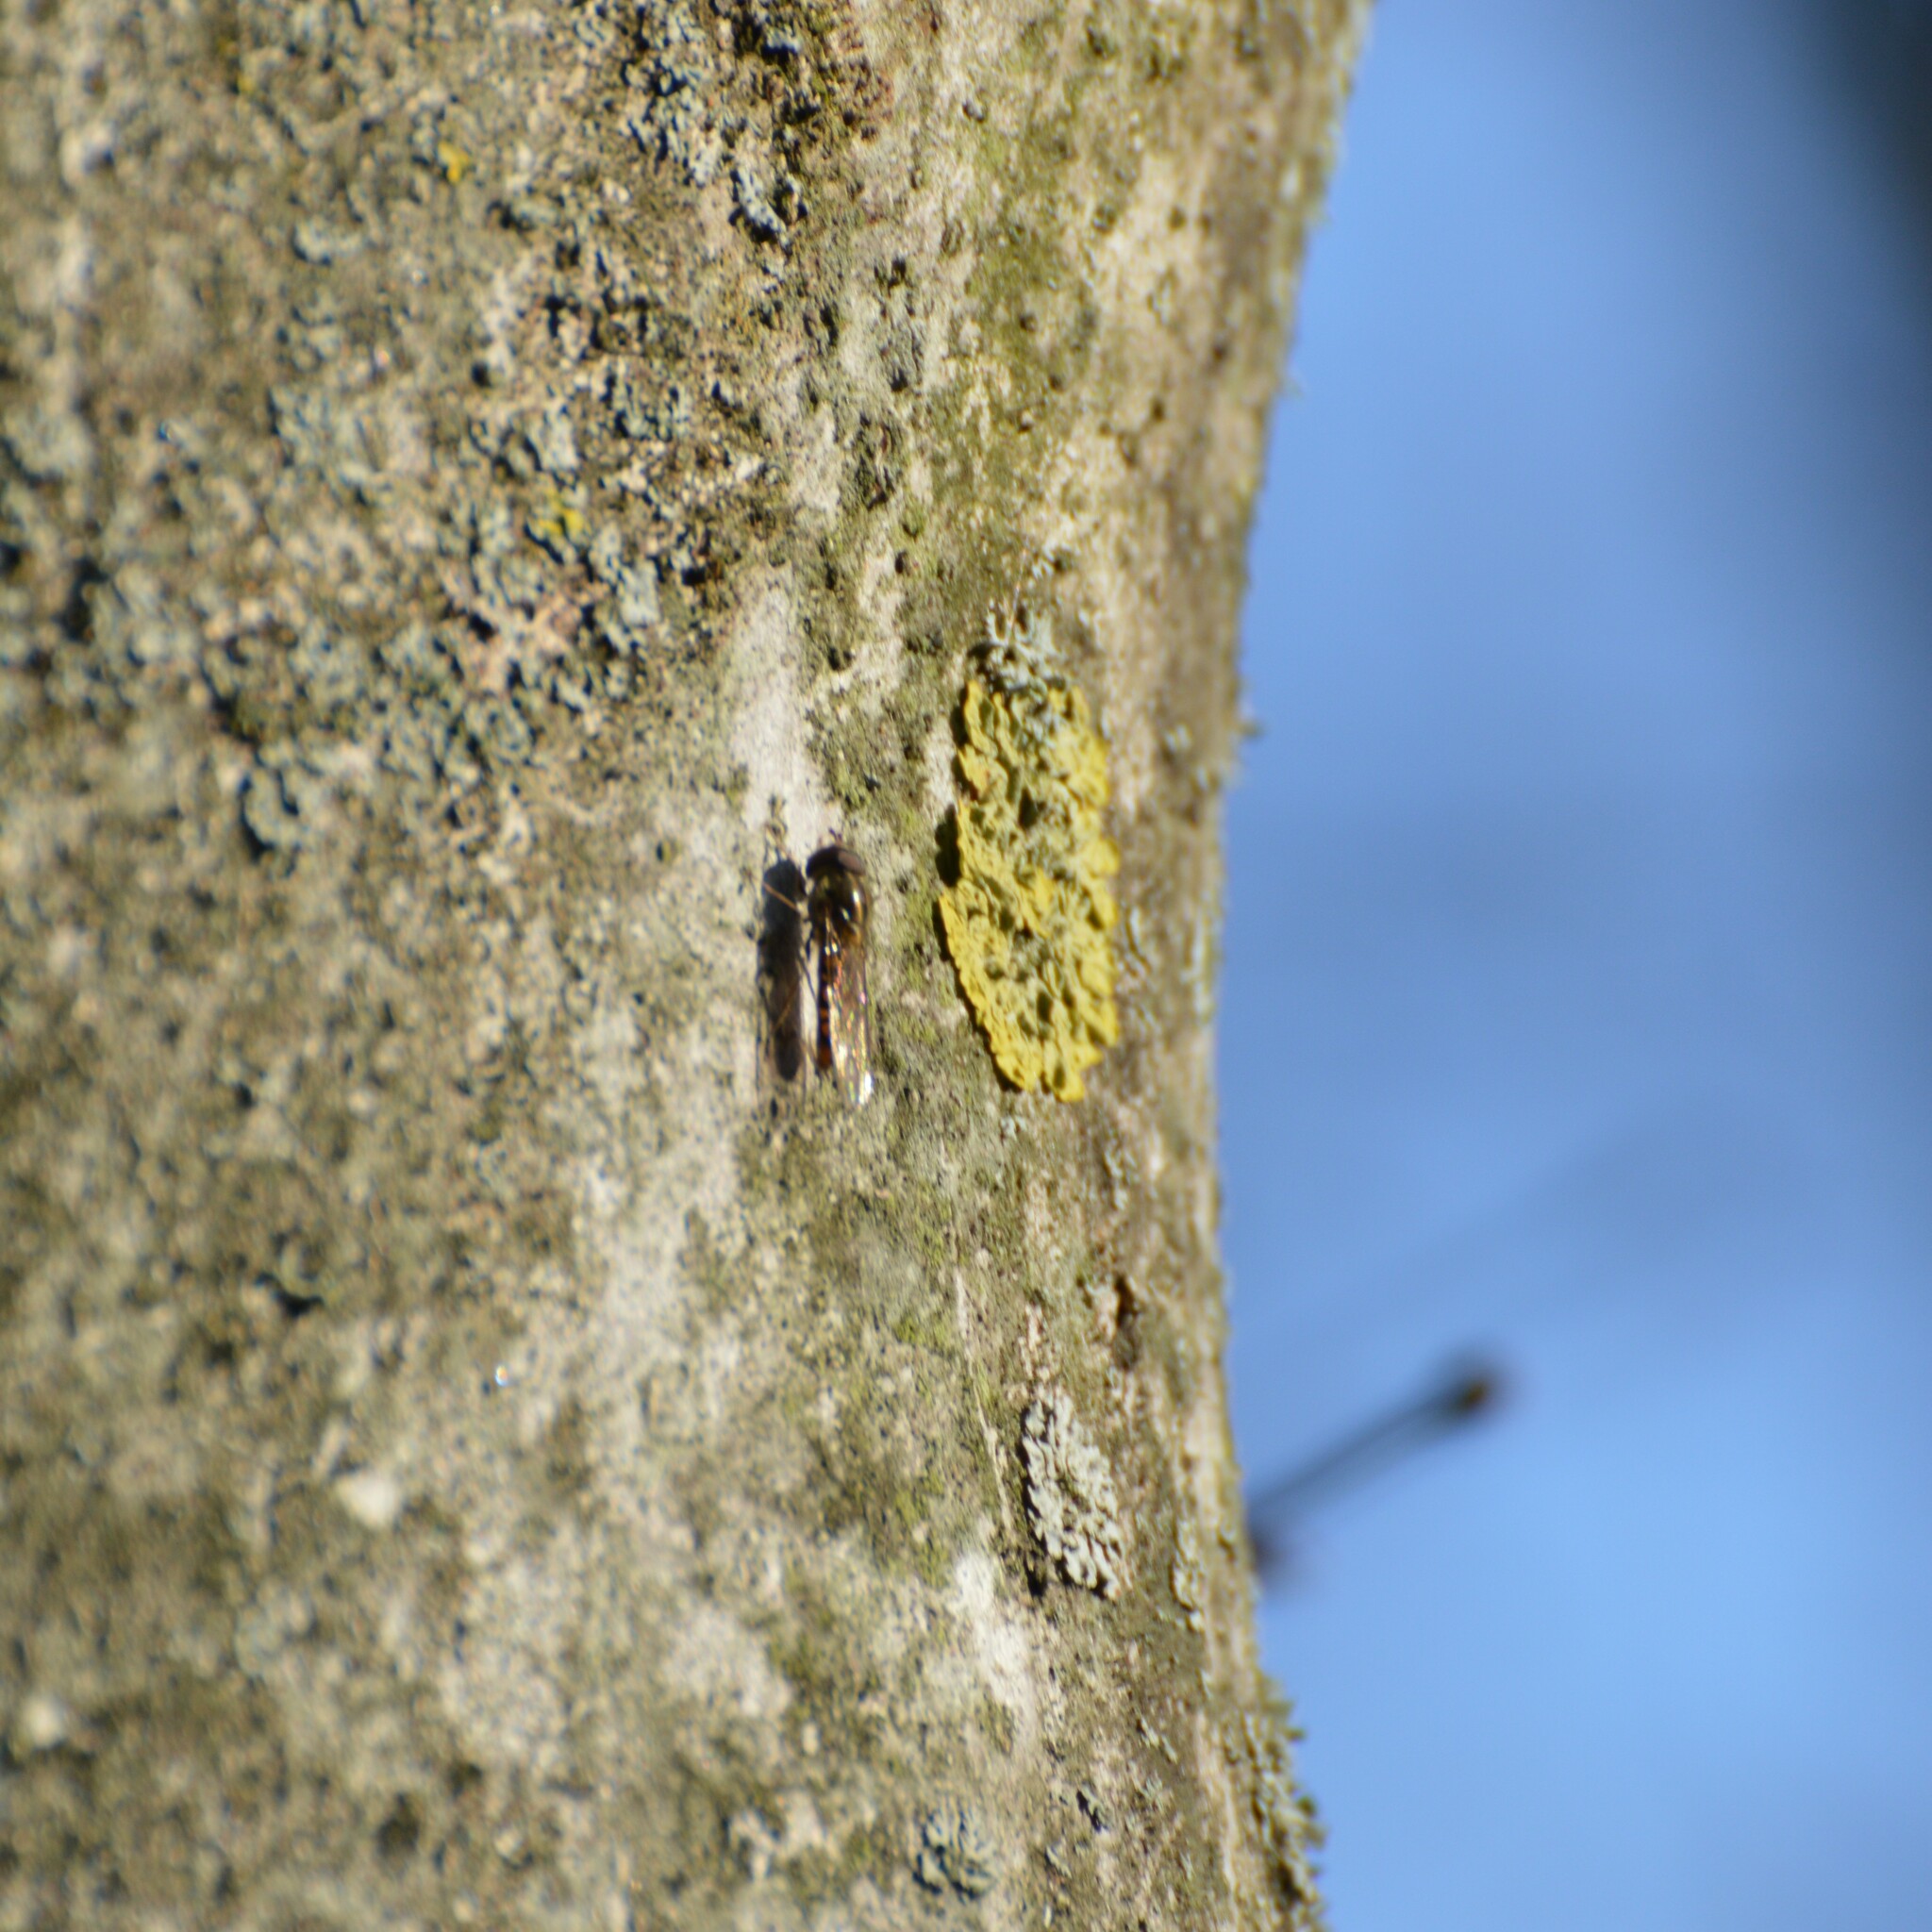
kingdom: Animalia
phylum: Arthropoda
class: Insecta
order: Diptera
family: Syrphidae
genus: Episyrphus
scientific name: Episyrphus balteatus
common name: Marmalade hoverfly
